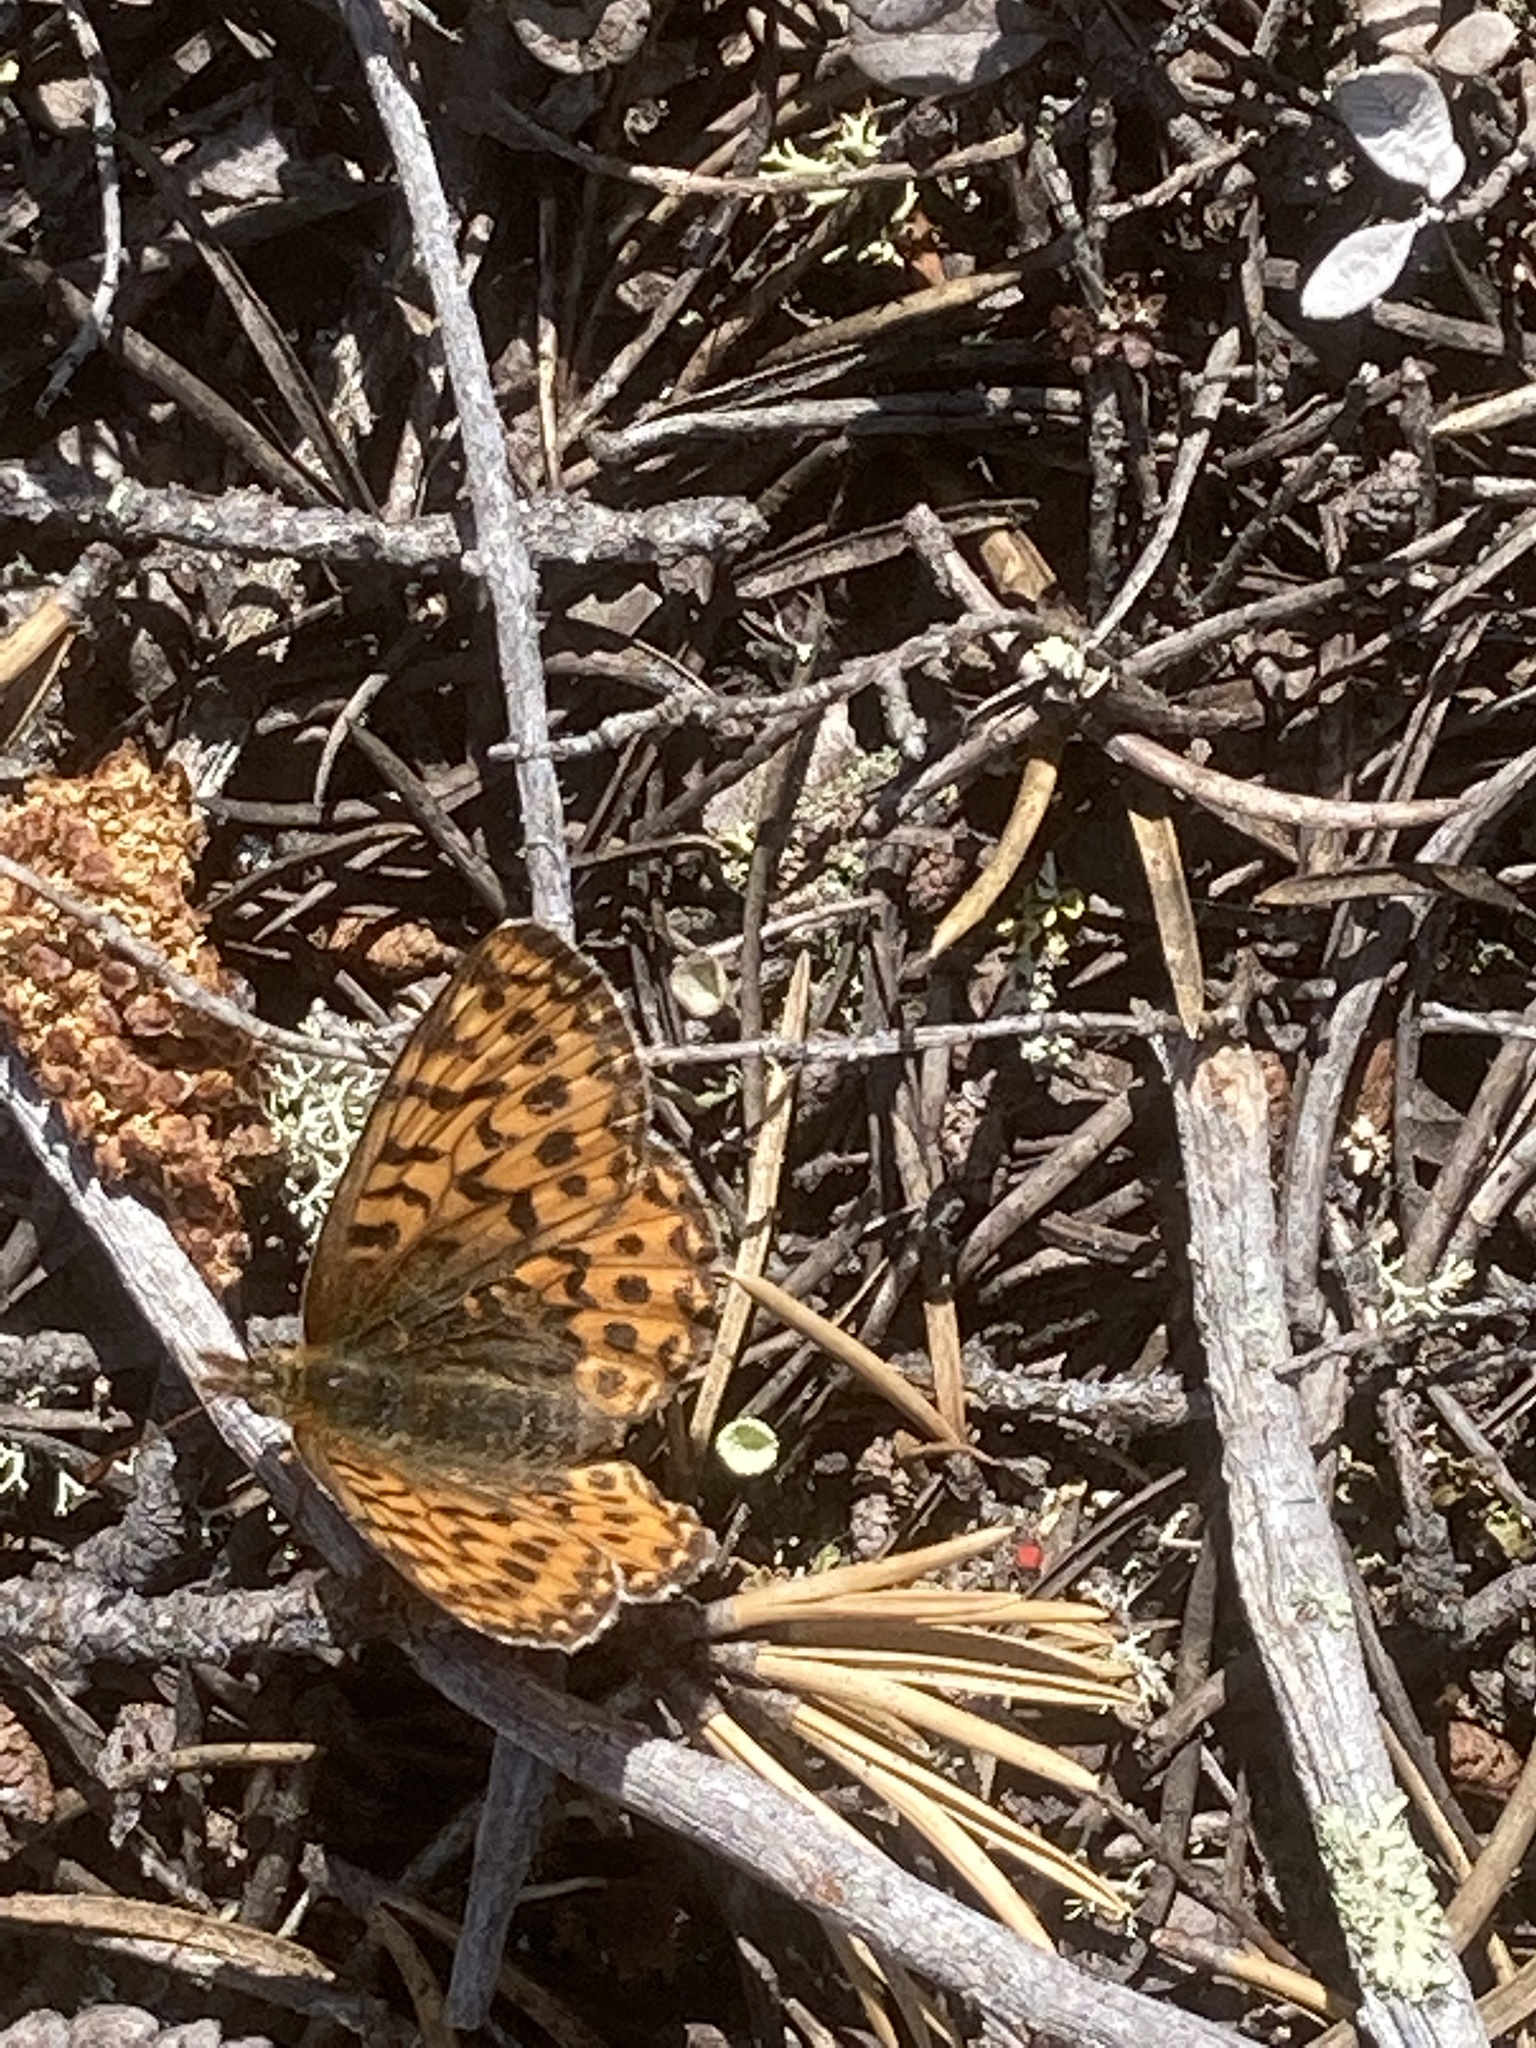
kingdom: Animalia
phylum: Arthropoda
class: Insecta
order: Lepidoptera
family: Nymphalidae
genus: Boloria
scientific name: Boloria freija
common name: Freija fritillary
